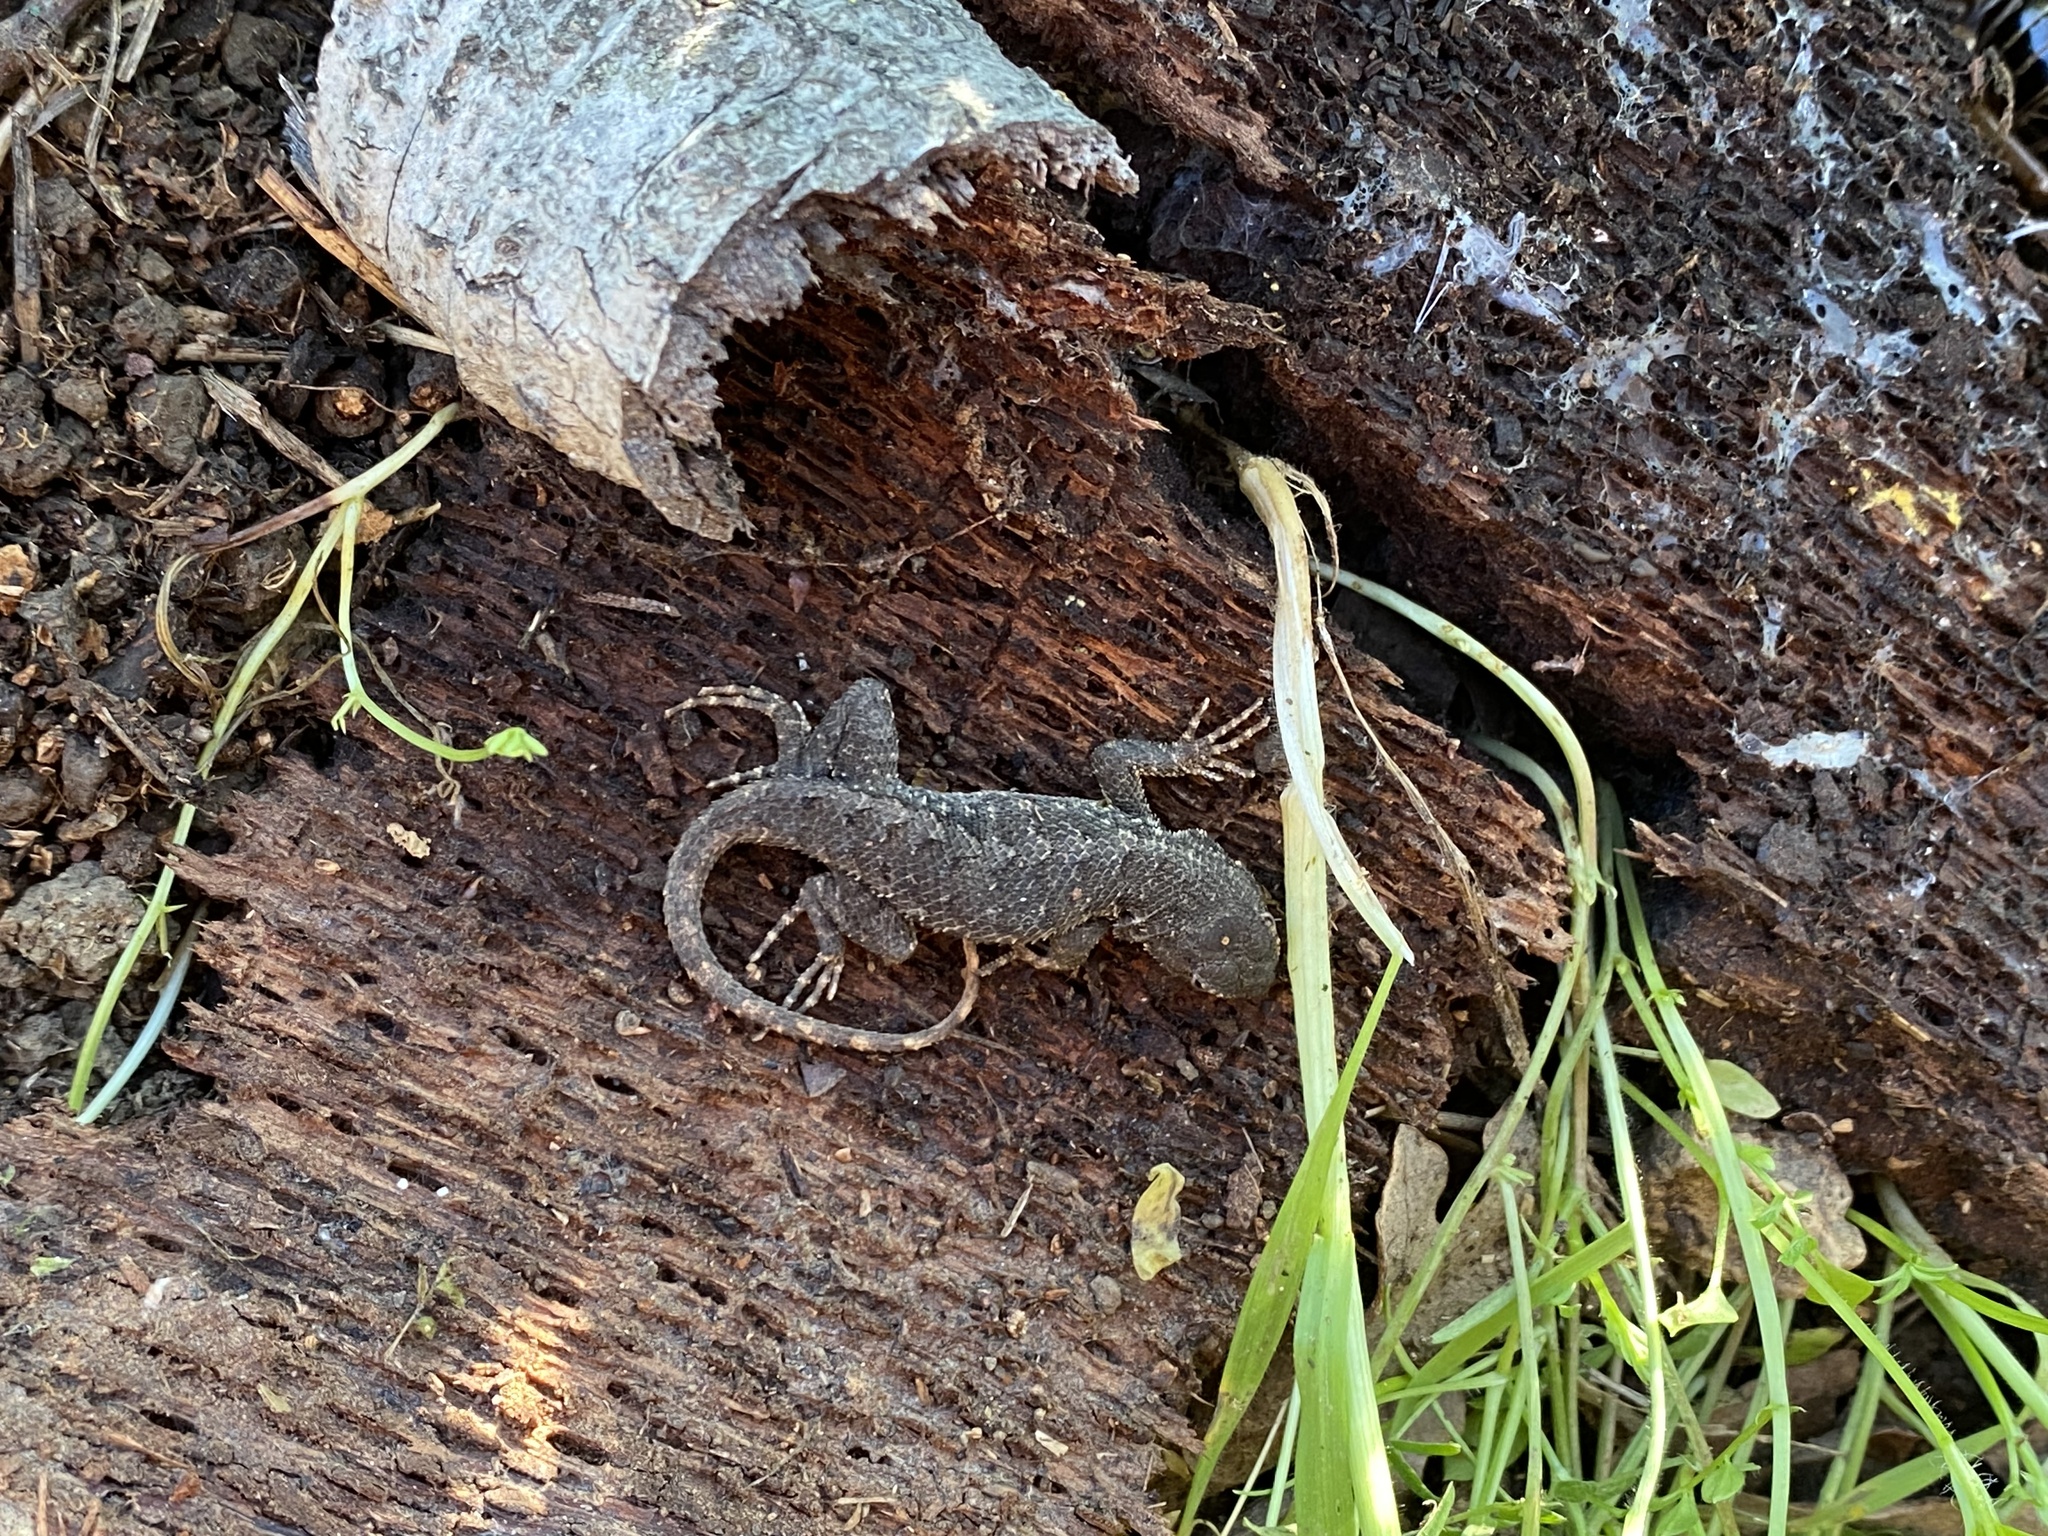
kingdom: Animalia
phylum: Chordata
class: Squamata
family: Phrynosomatidae
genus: Sceloporus
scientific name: Sceloporus occidentalis
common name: Western fence lizard
